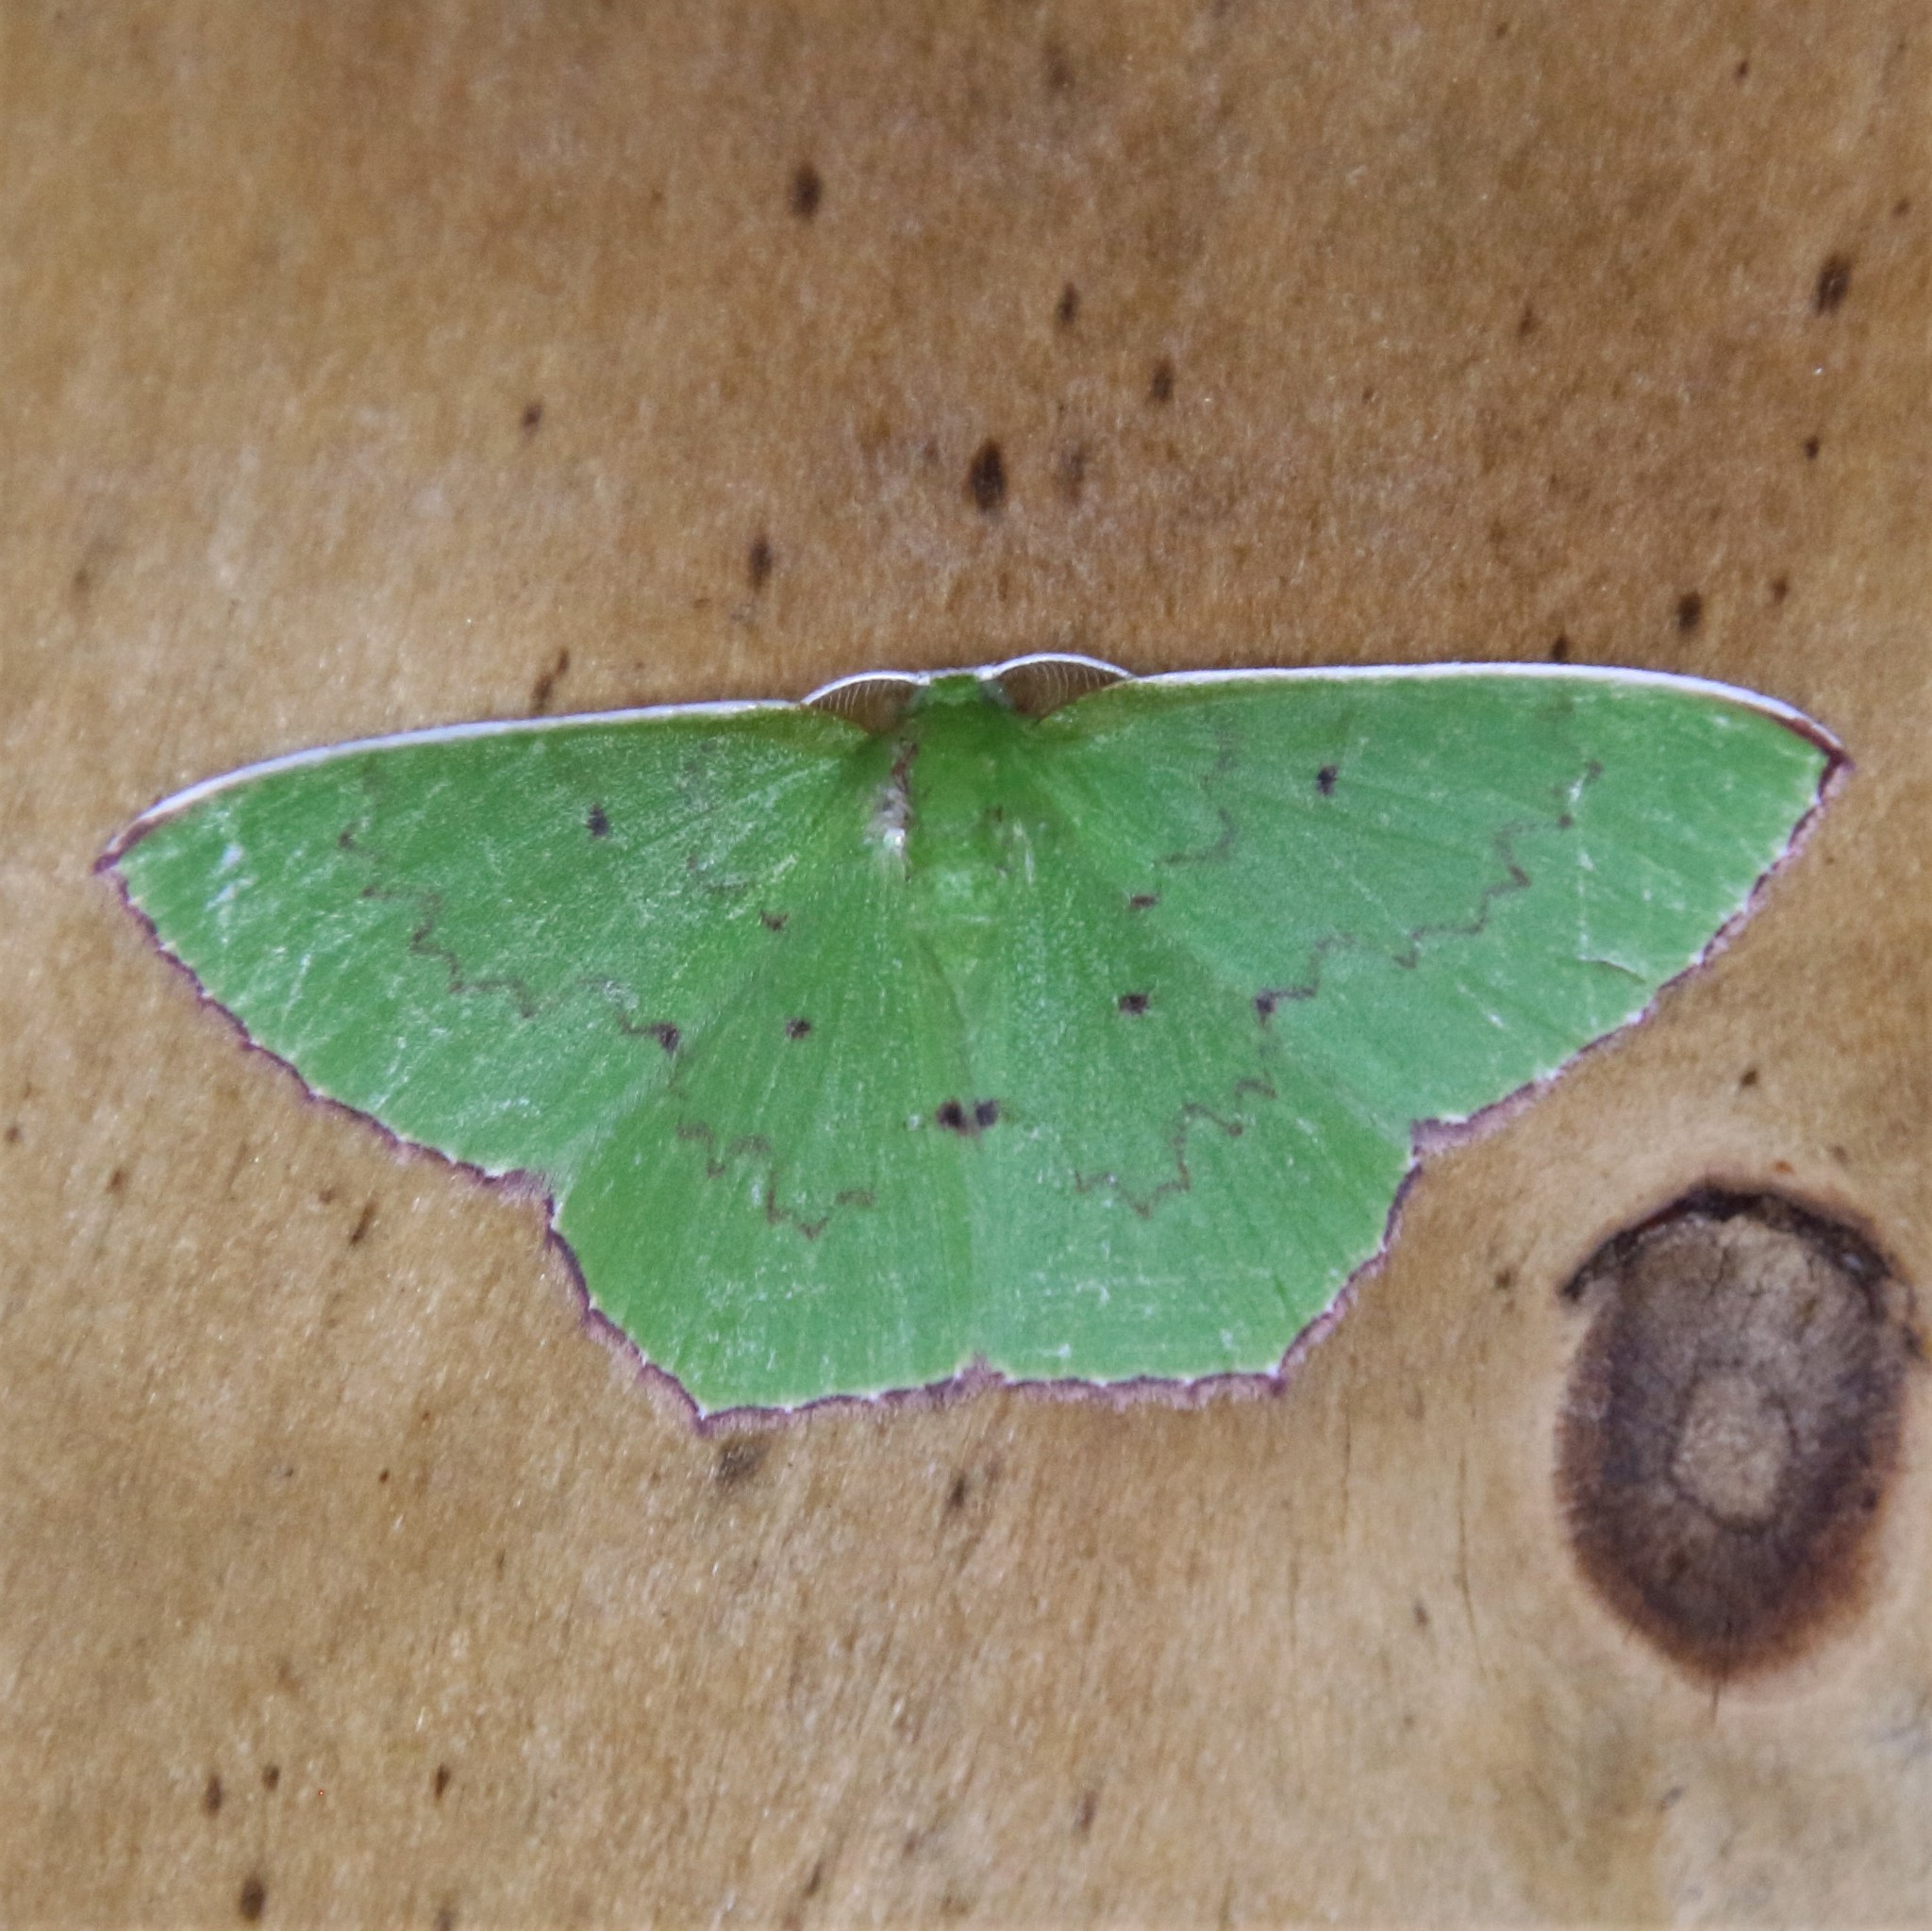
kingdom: Animalia
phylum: Arthropoda
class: Insecta
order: Lepidoptera
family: Geometridae
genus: Oenospila
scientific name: Oenospila flavifusata
